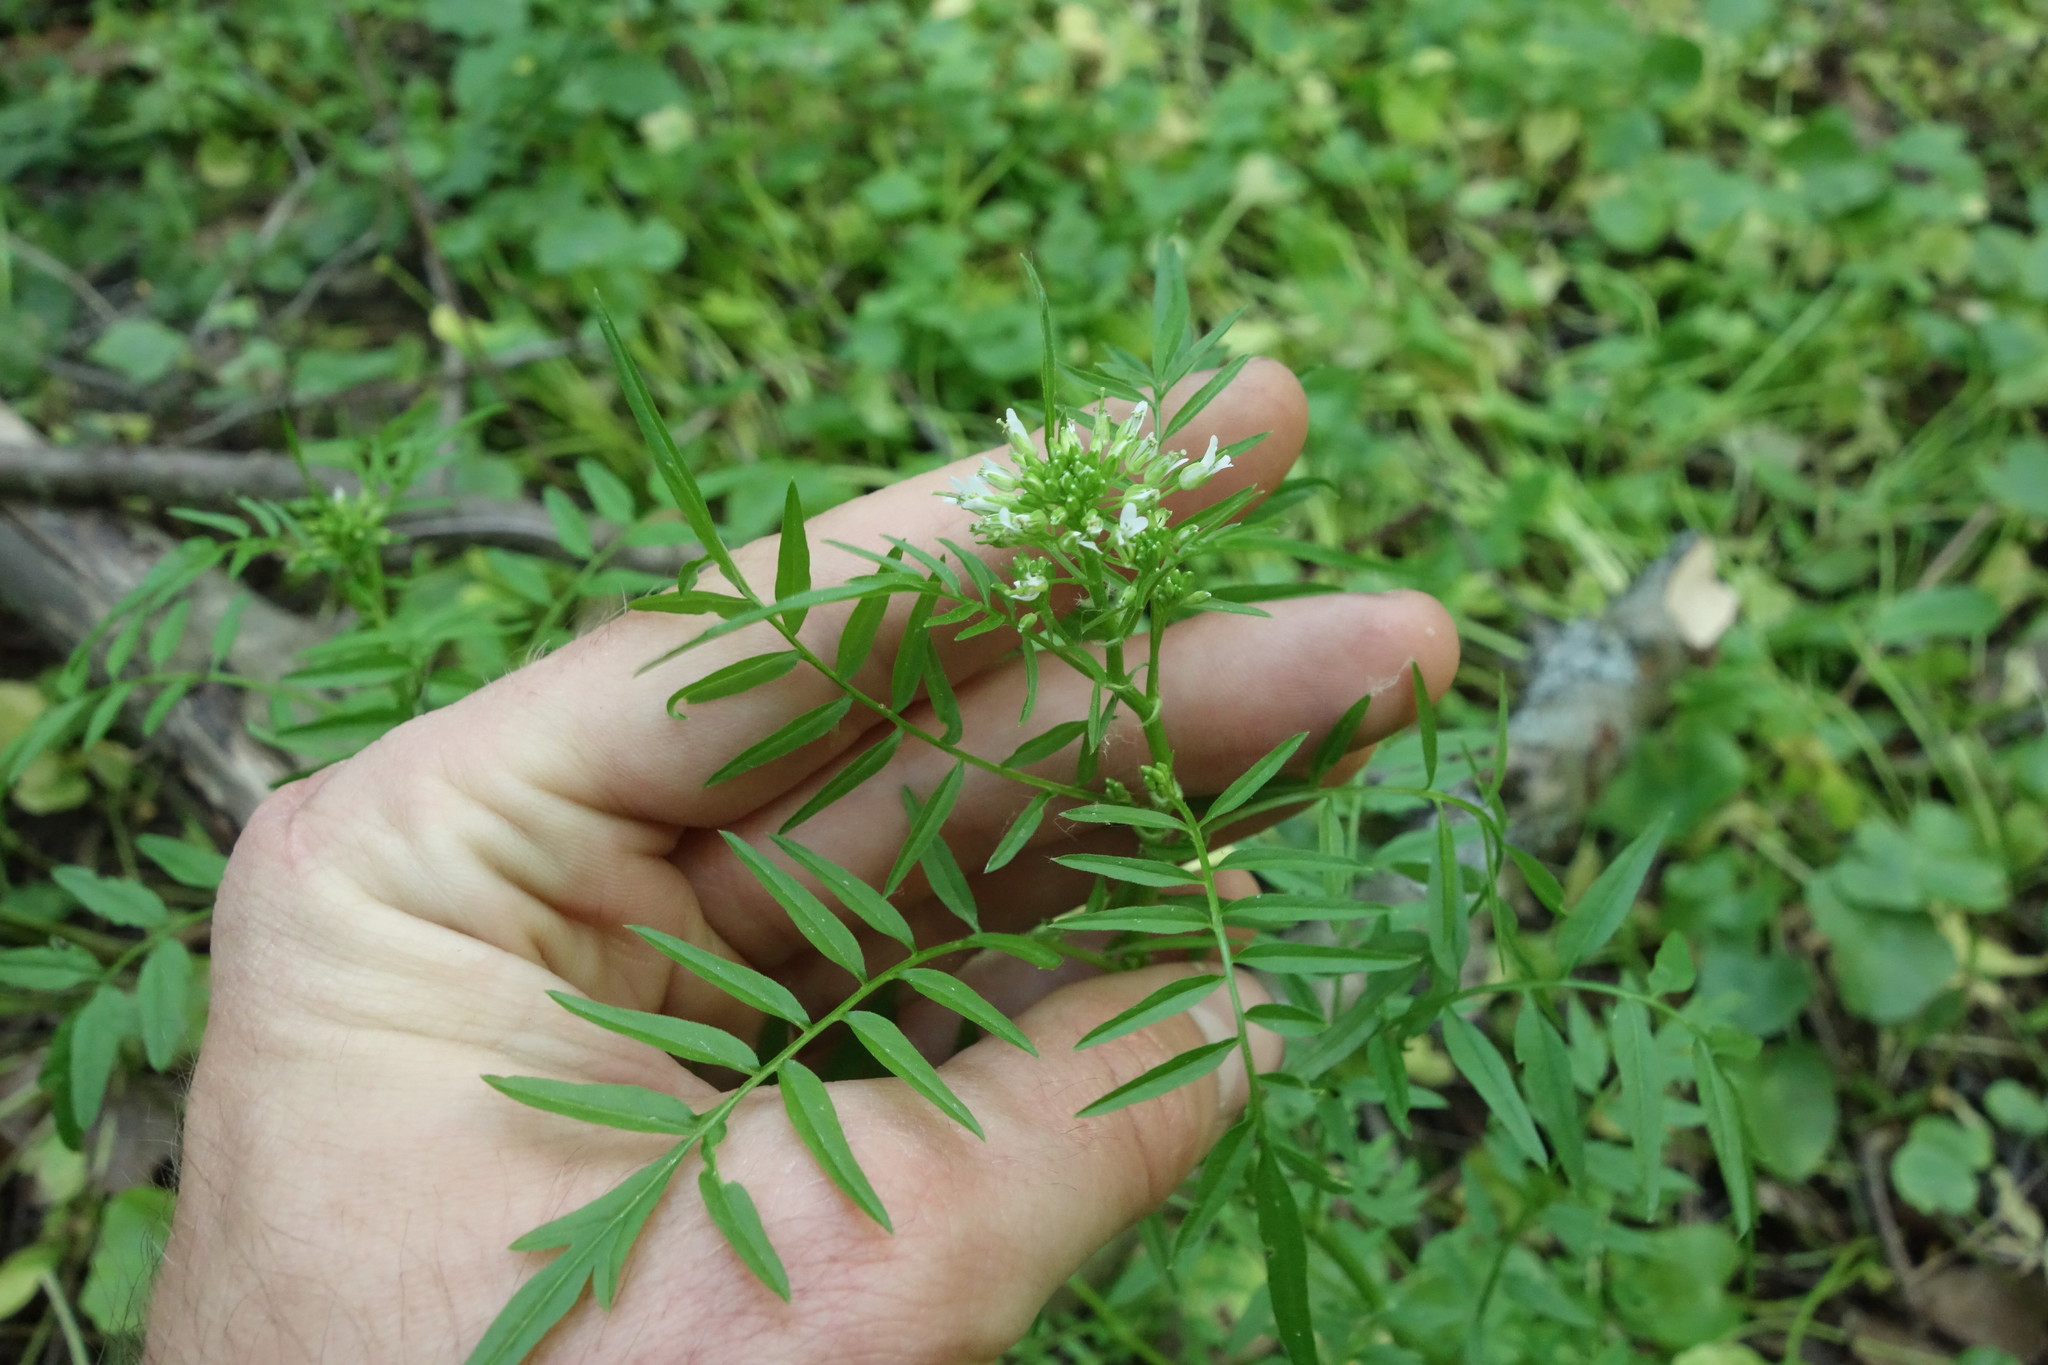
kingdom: Plantae
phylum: Tracheophyta
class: Magnoliopsida
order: Brassicales
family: Brassicaceae
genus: Cardamine
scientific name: Cardamine impatiens
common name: Narrow-leaved bitter-cress
